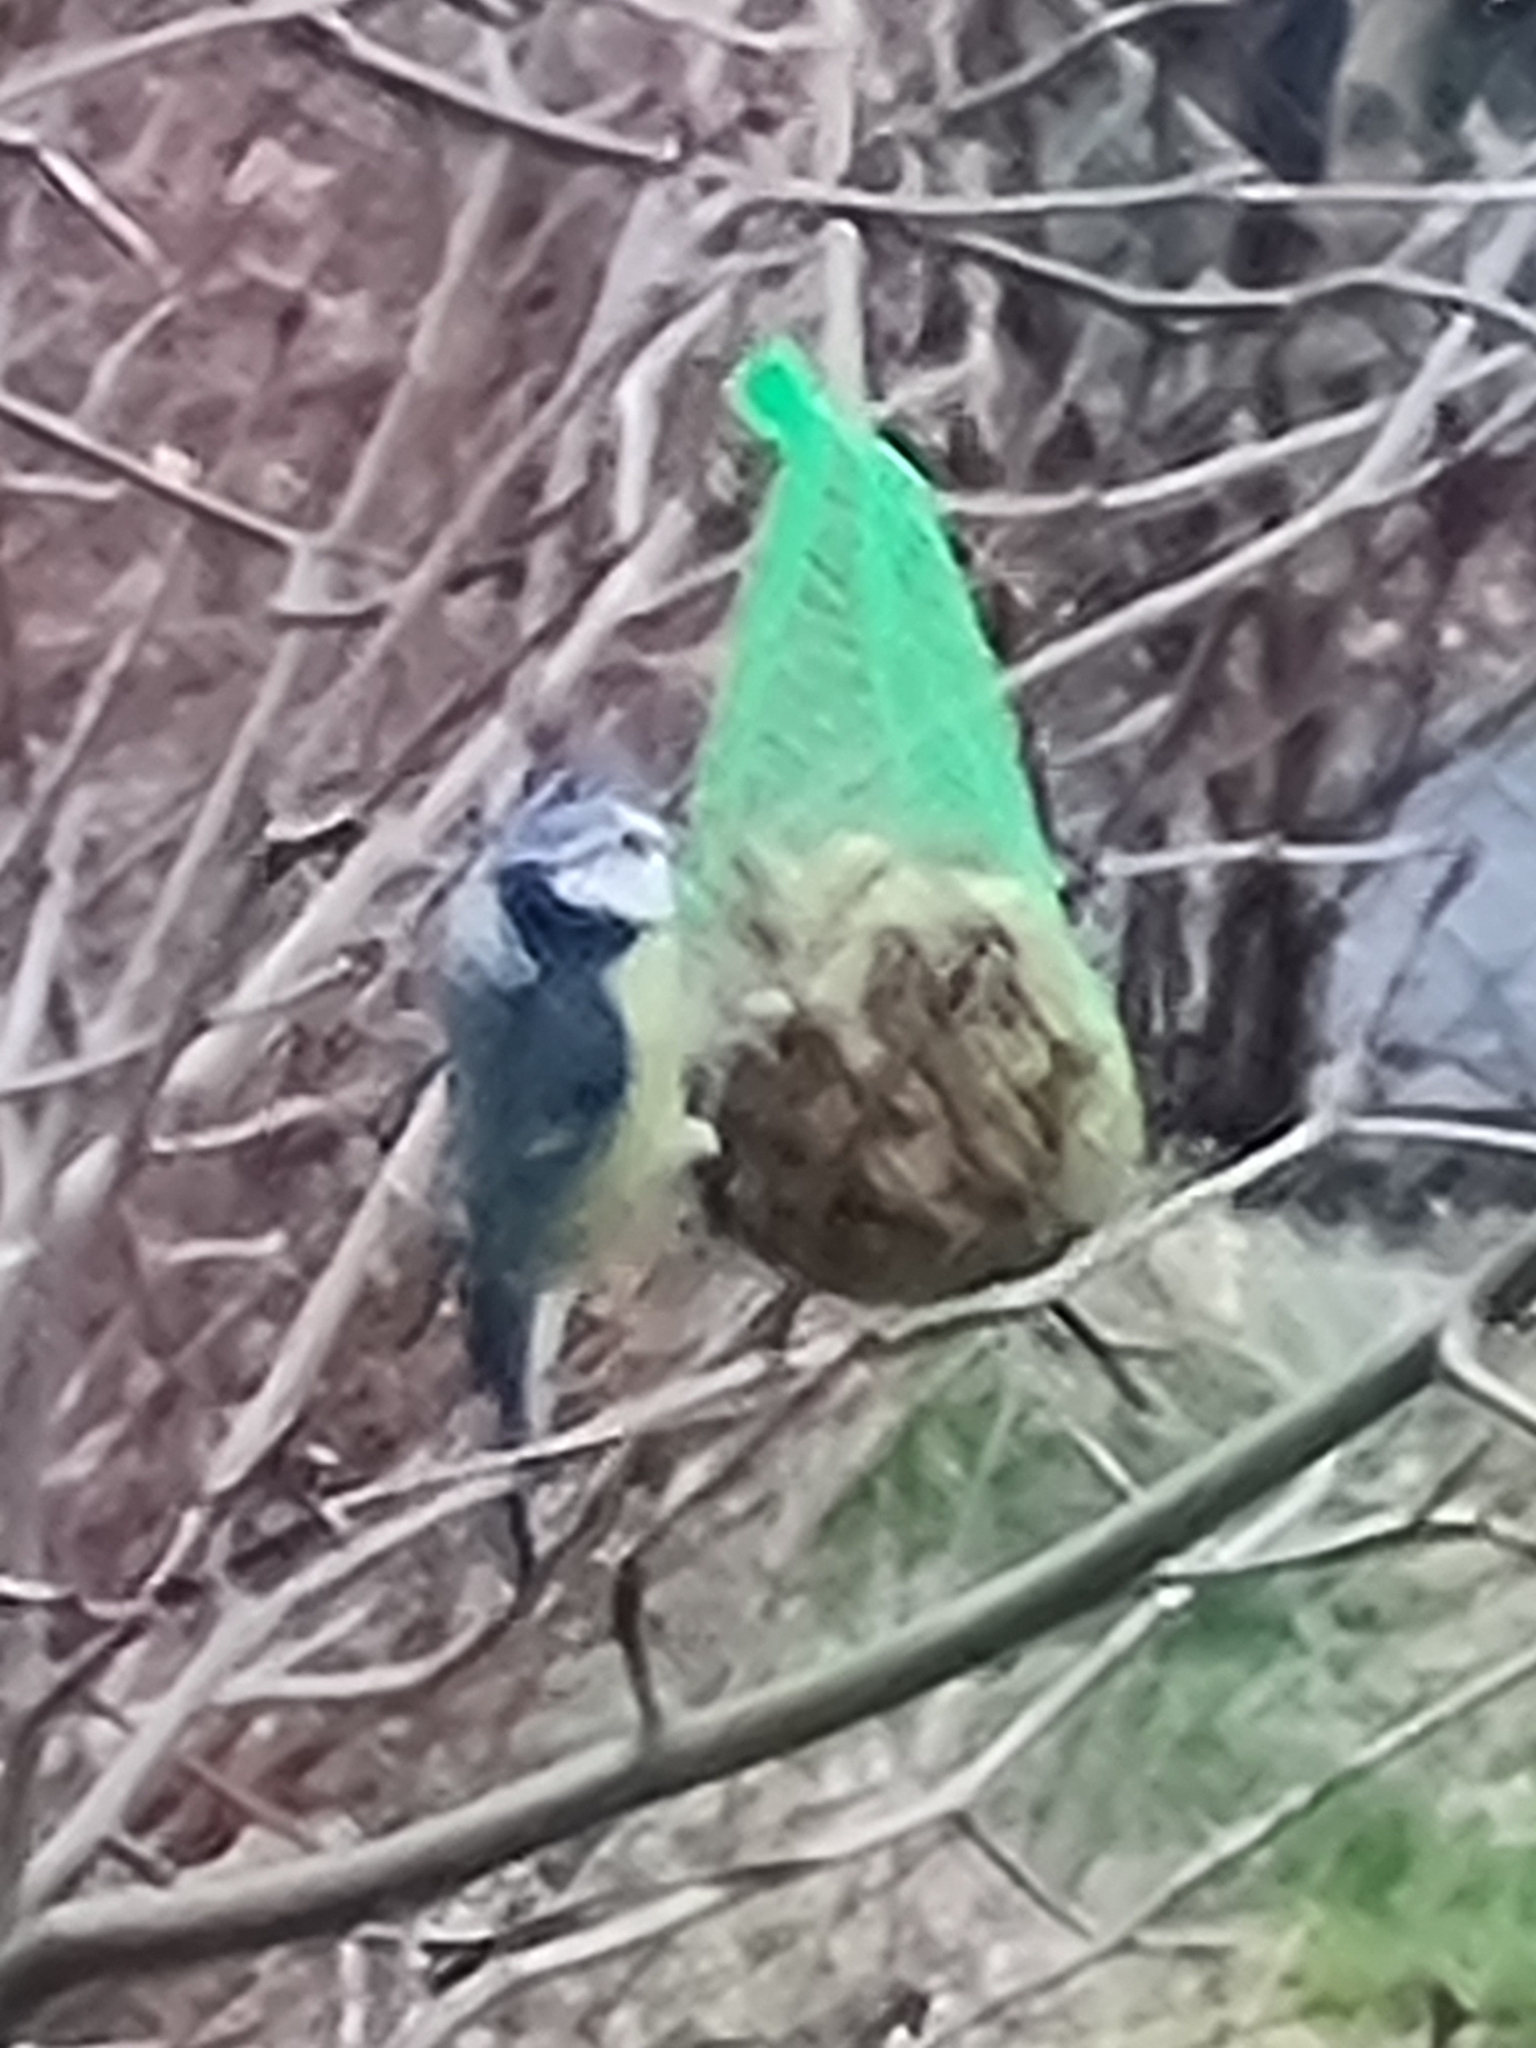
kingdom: Animalia
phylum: Chordata
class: Aves
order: Passeriformes
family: Paridae
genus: Cyanistes
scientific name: Cyanistes caeruleus
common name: Eurasian blue tit
